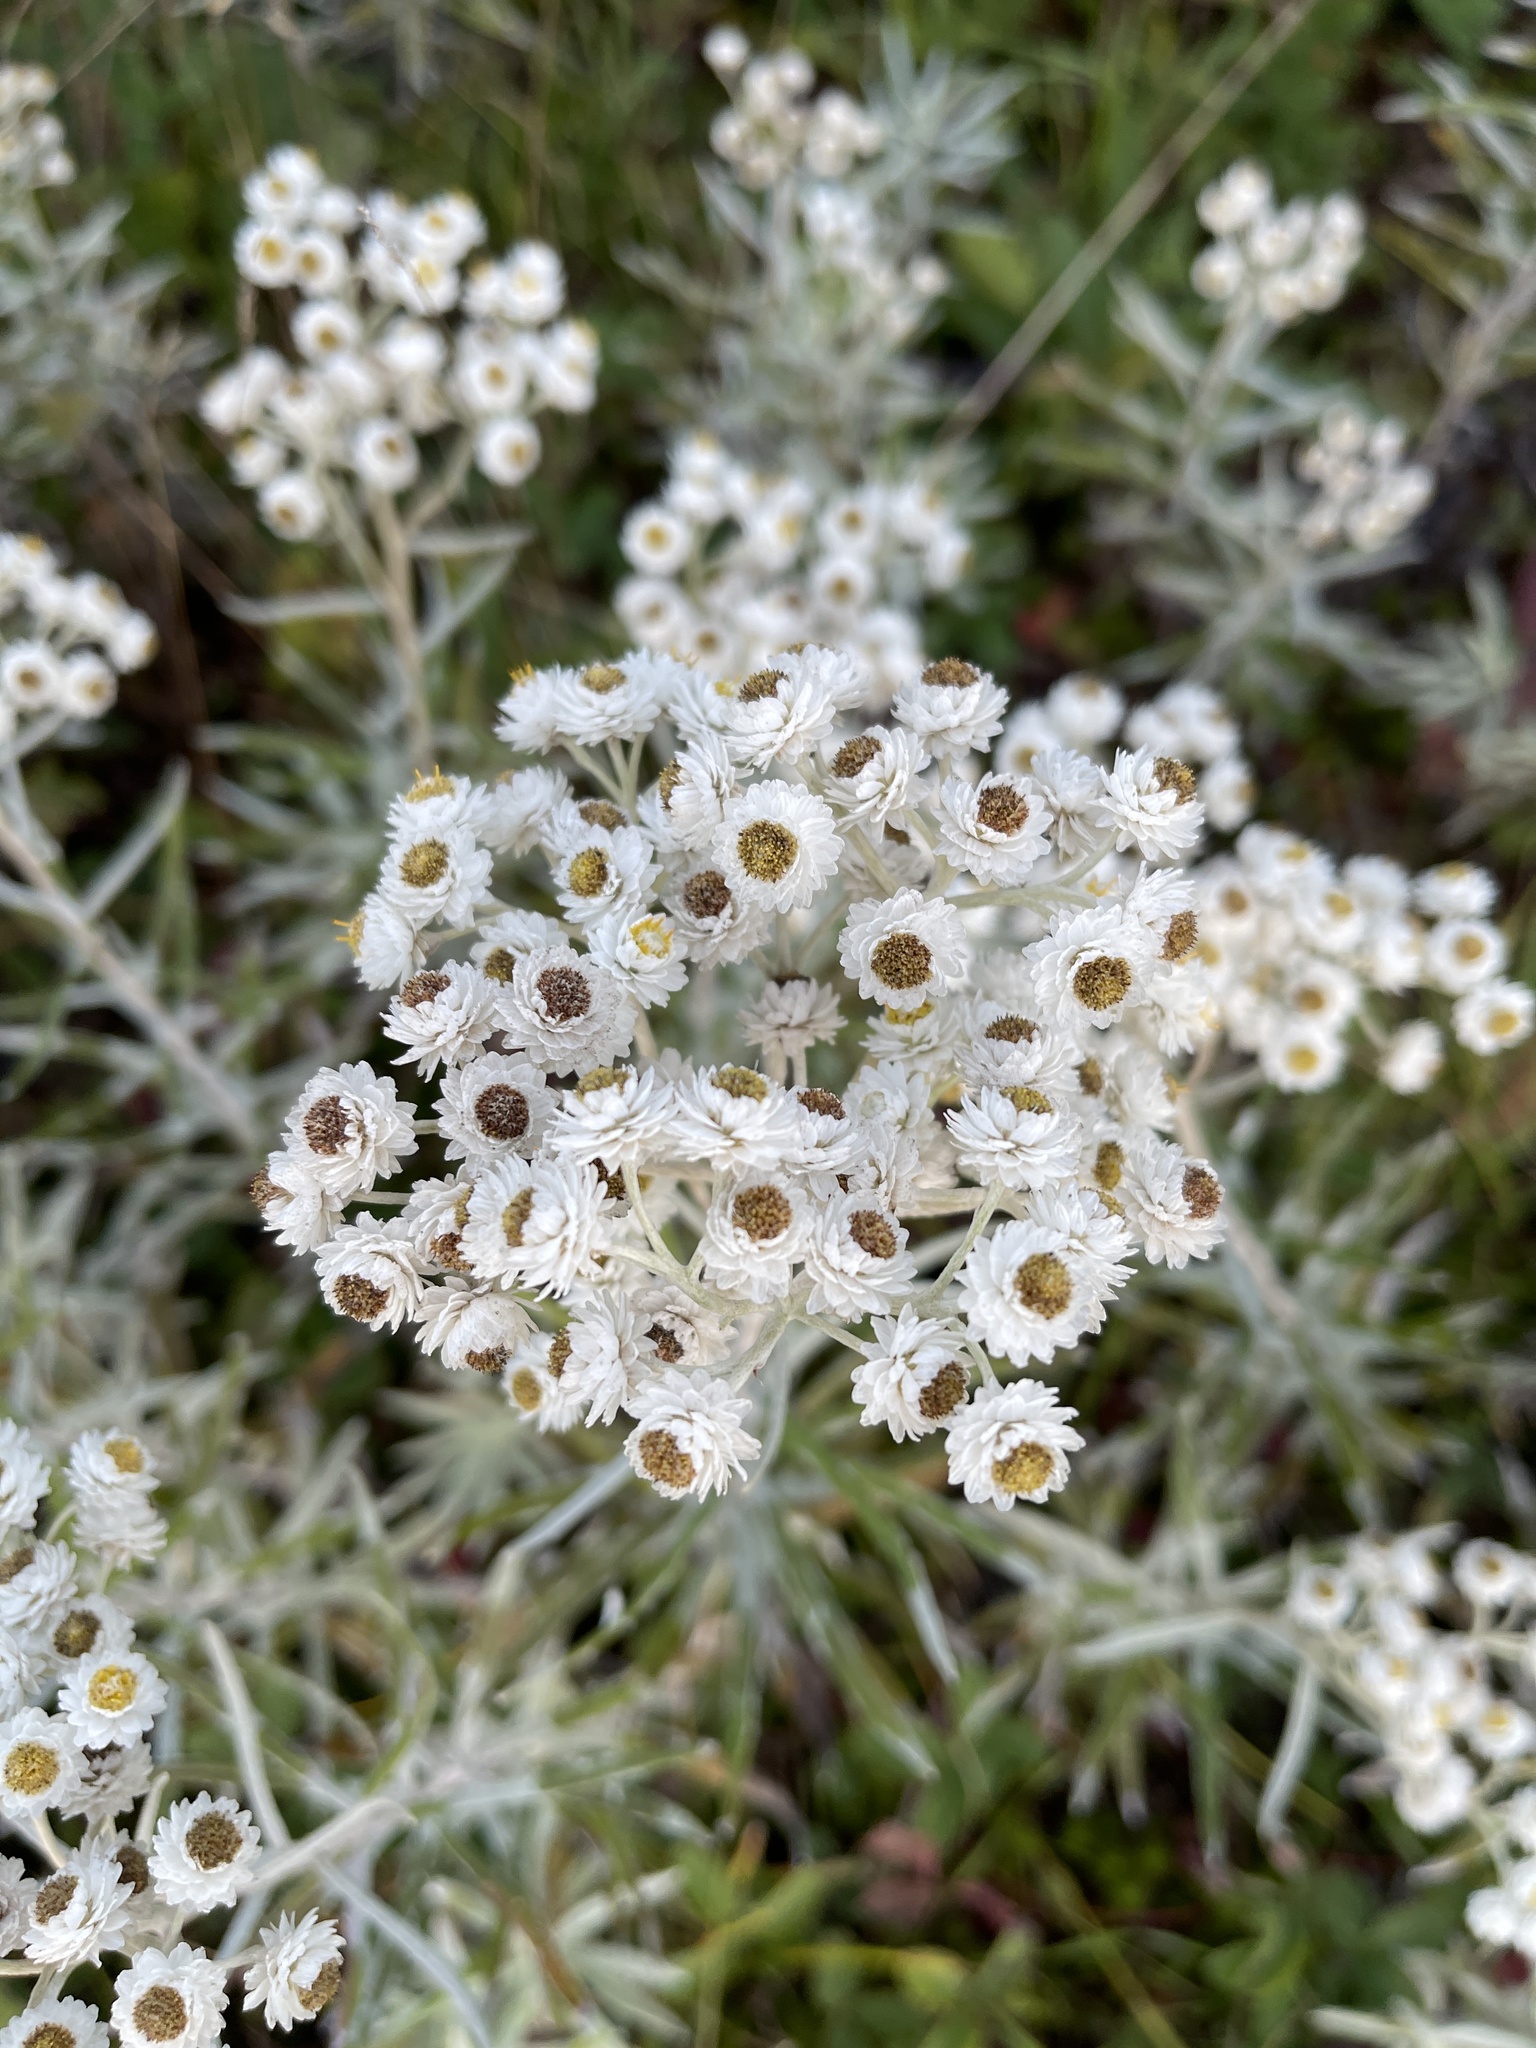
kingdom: Plantae
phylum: Tracheophyta
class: Magnoliopsida
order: Asterales
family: Asteraceae
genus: Anaphalis
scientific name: Anaphalis margaritacea
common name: Pearly everlasting
